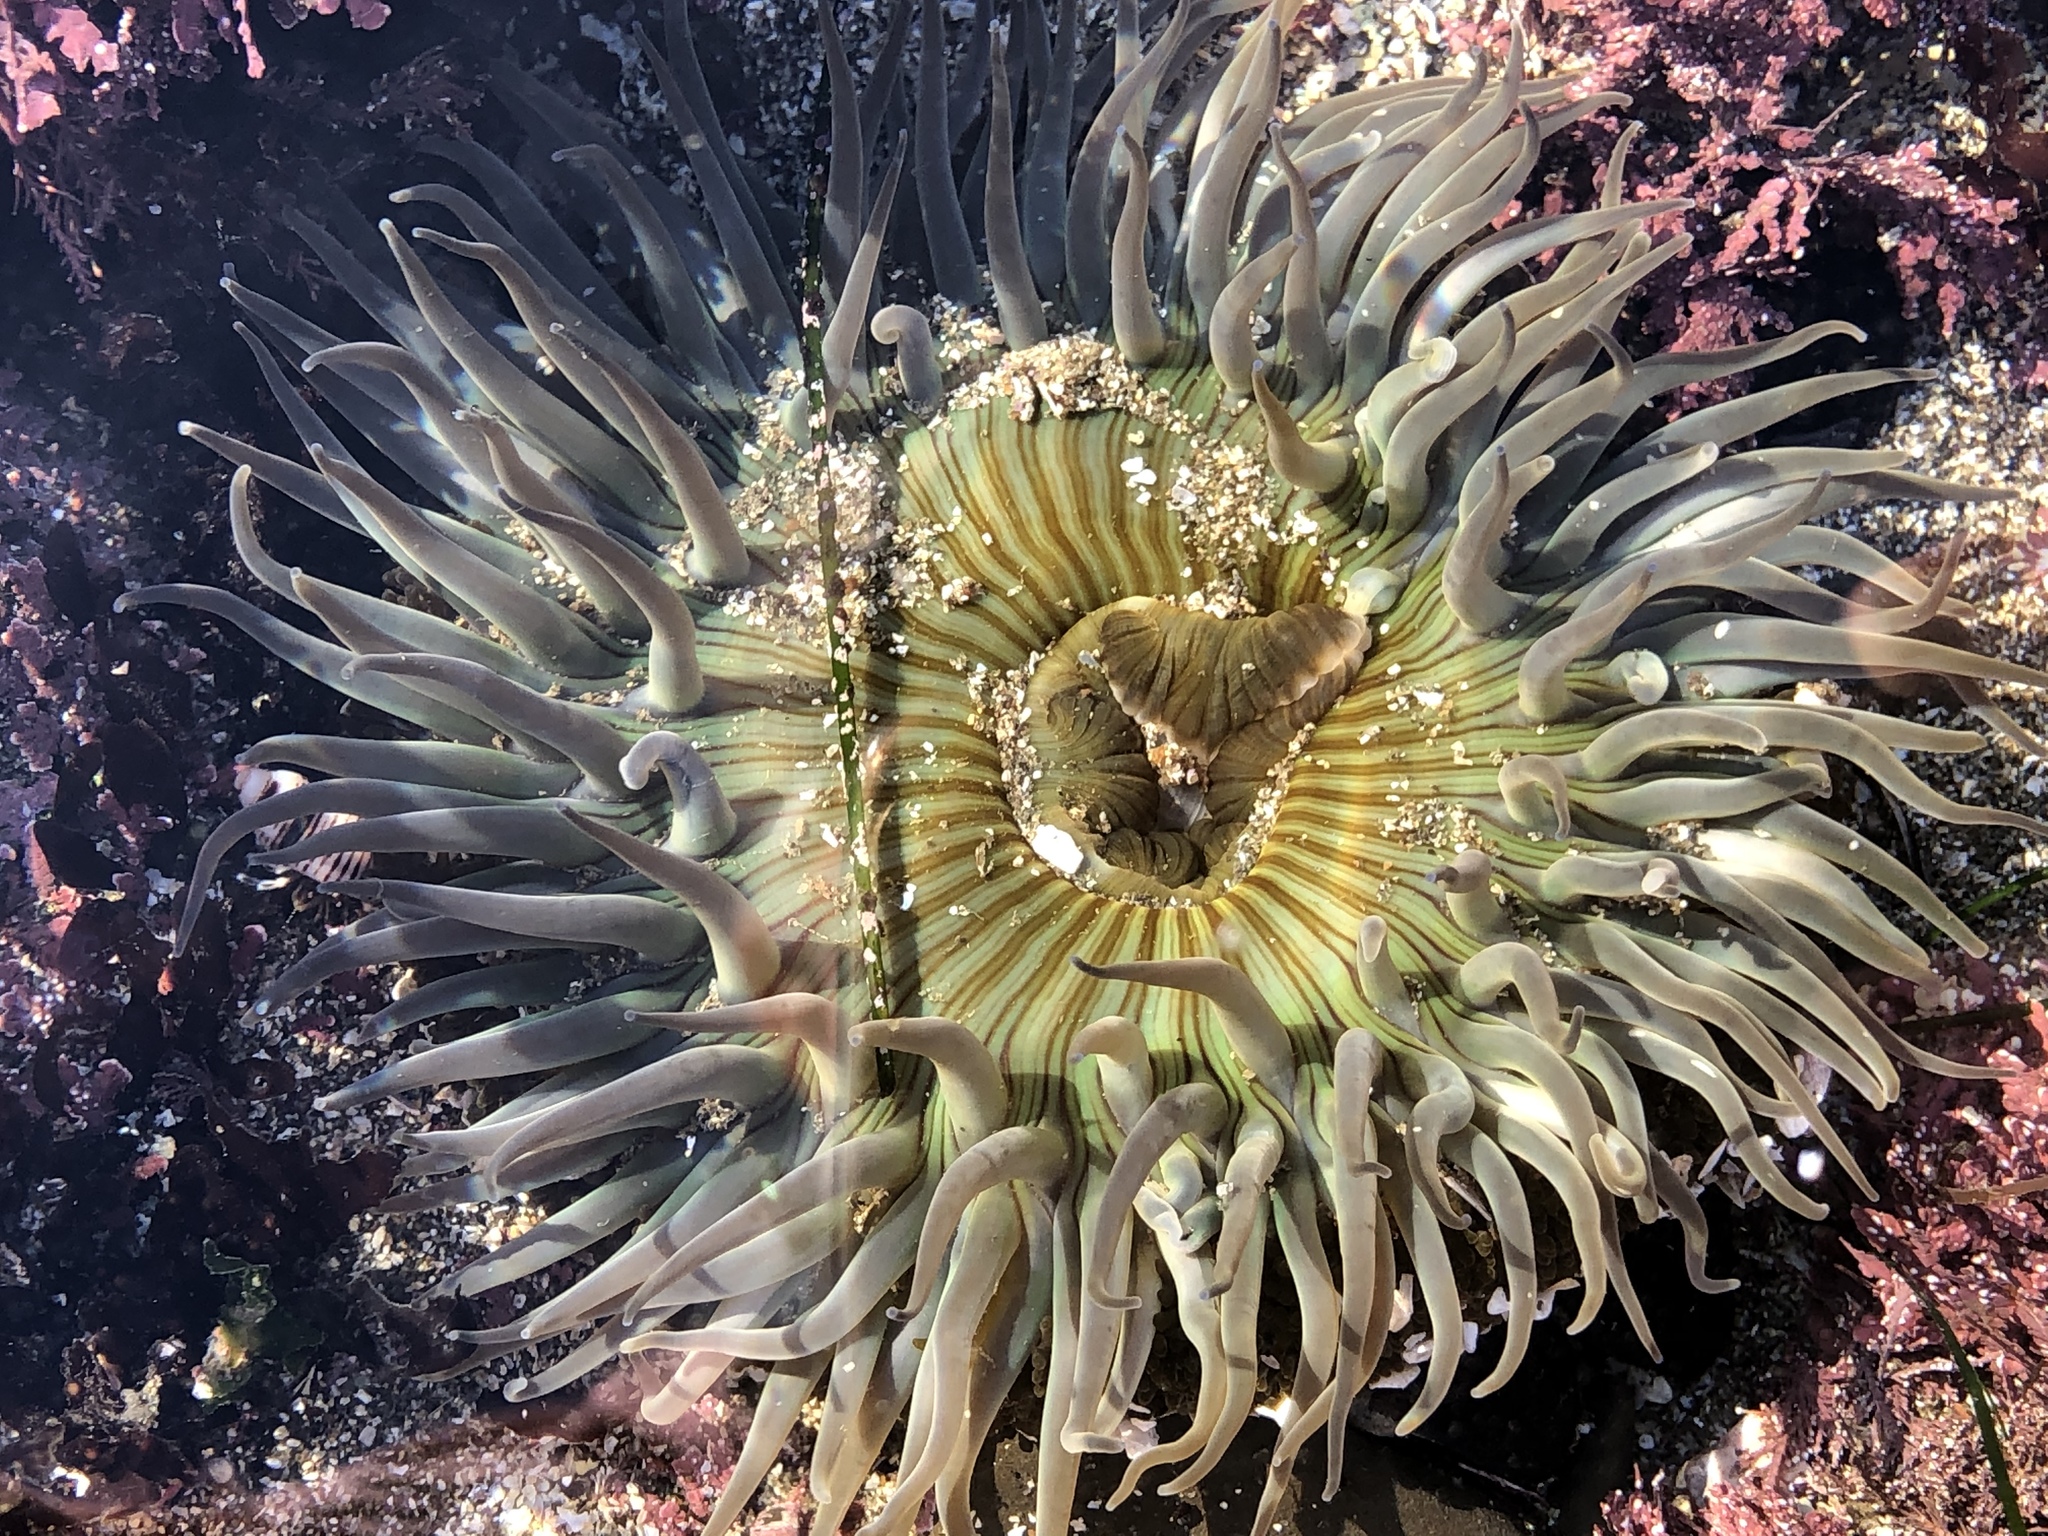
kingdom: Animalia
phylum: Cnidaria
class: Anthozoa
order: Actiniaria
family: Actiniidae
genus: Anthopleura
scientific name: Anthopleura sola
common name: Sun anemone
